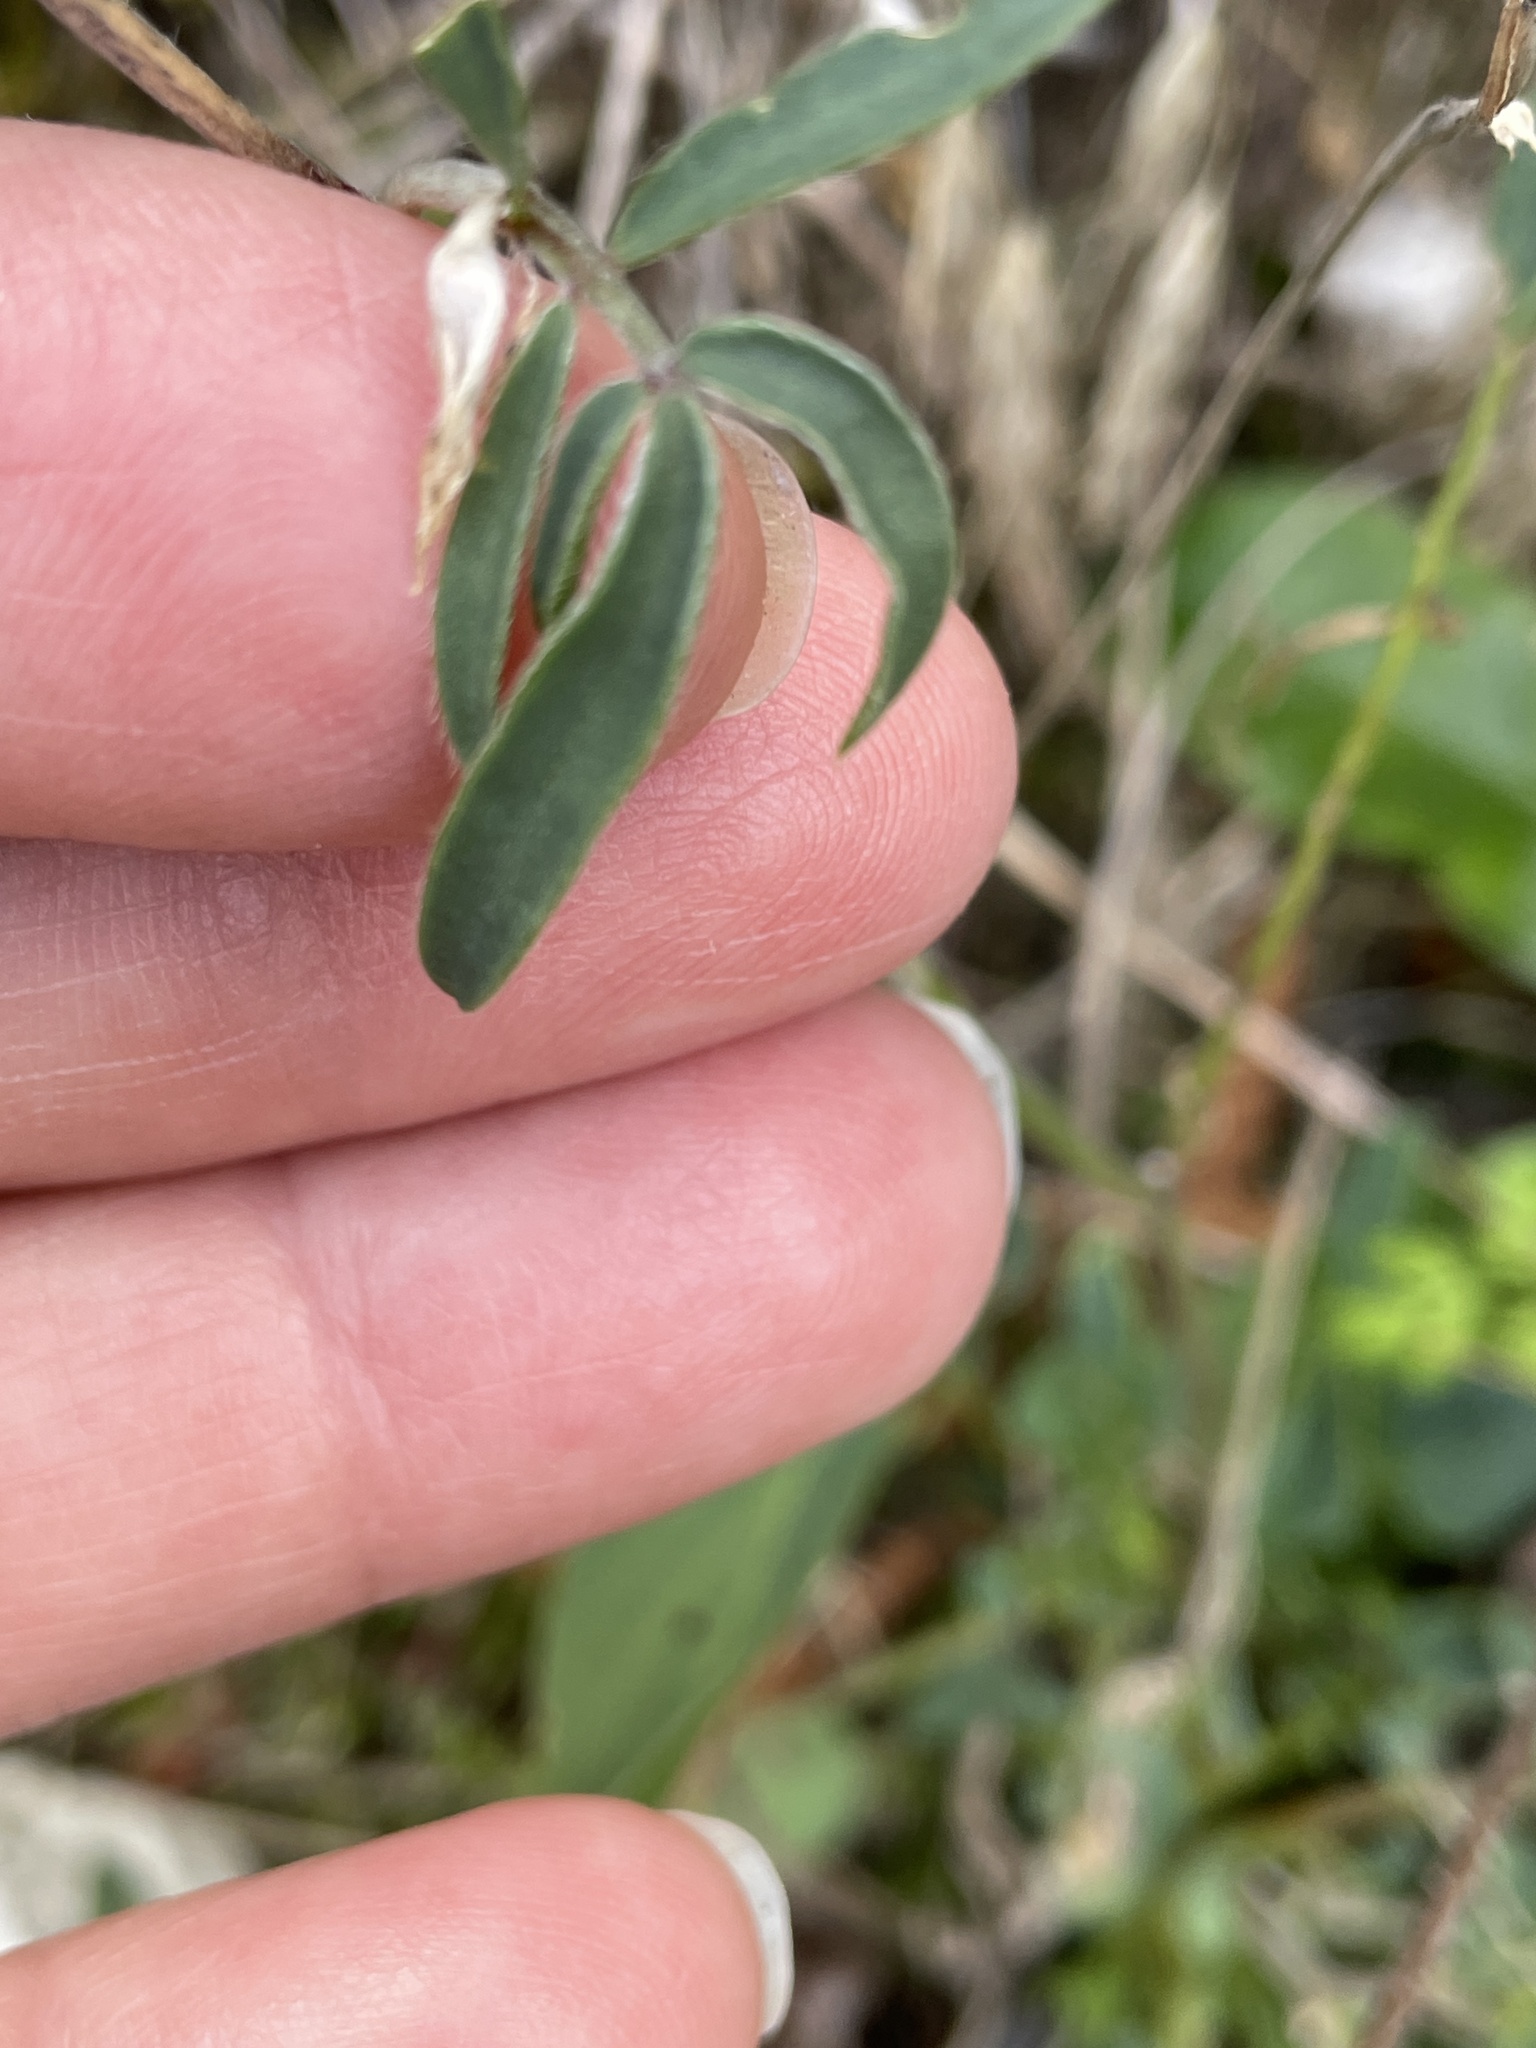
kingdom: Plantae
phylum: Tracheophyta
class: Magnoliopsida
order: Fabales
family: Fabaceae
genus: Anthyllis
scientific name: Anthyllis vulneraria
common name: Kidney vetch
